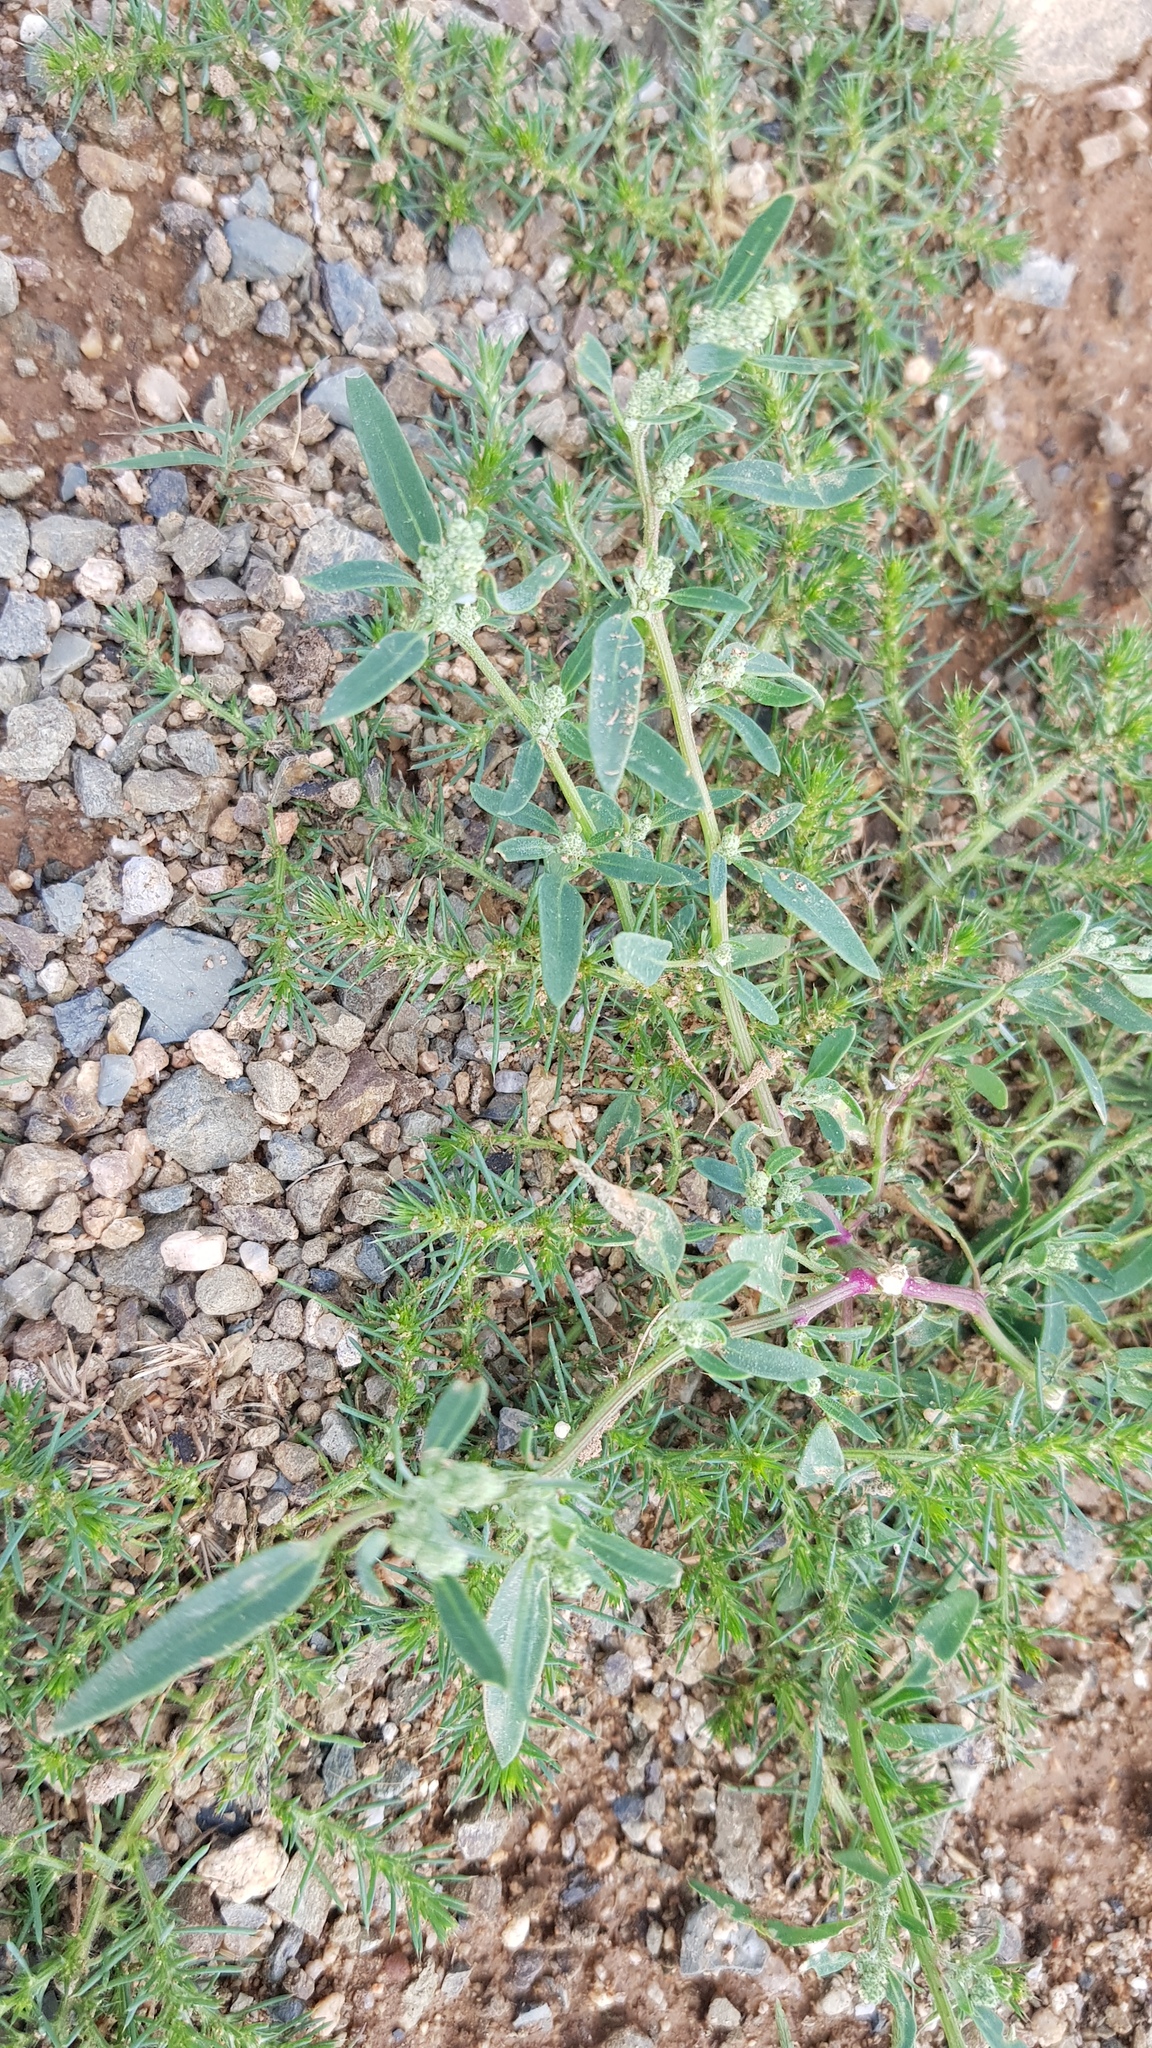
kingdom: Plantae
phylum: Tracheophyta
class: Magnoliopsida
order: Caryophyllales
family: Amaranthaceae
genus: Chenopodium
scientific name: Chenopodium acuminatum
